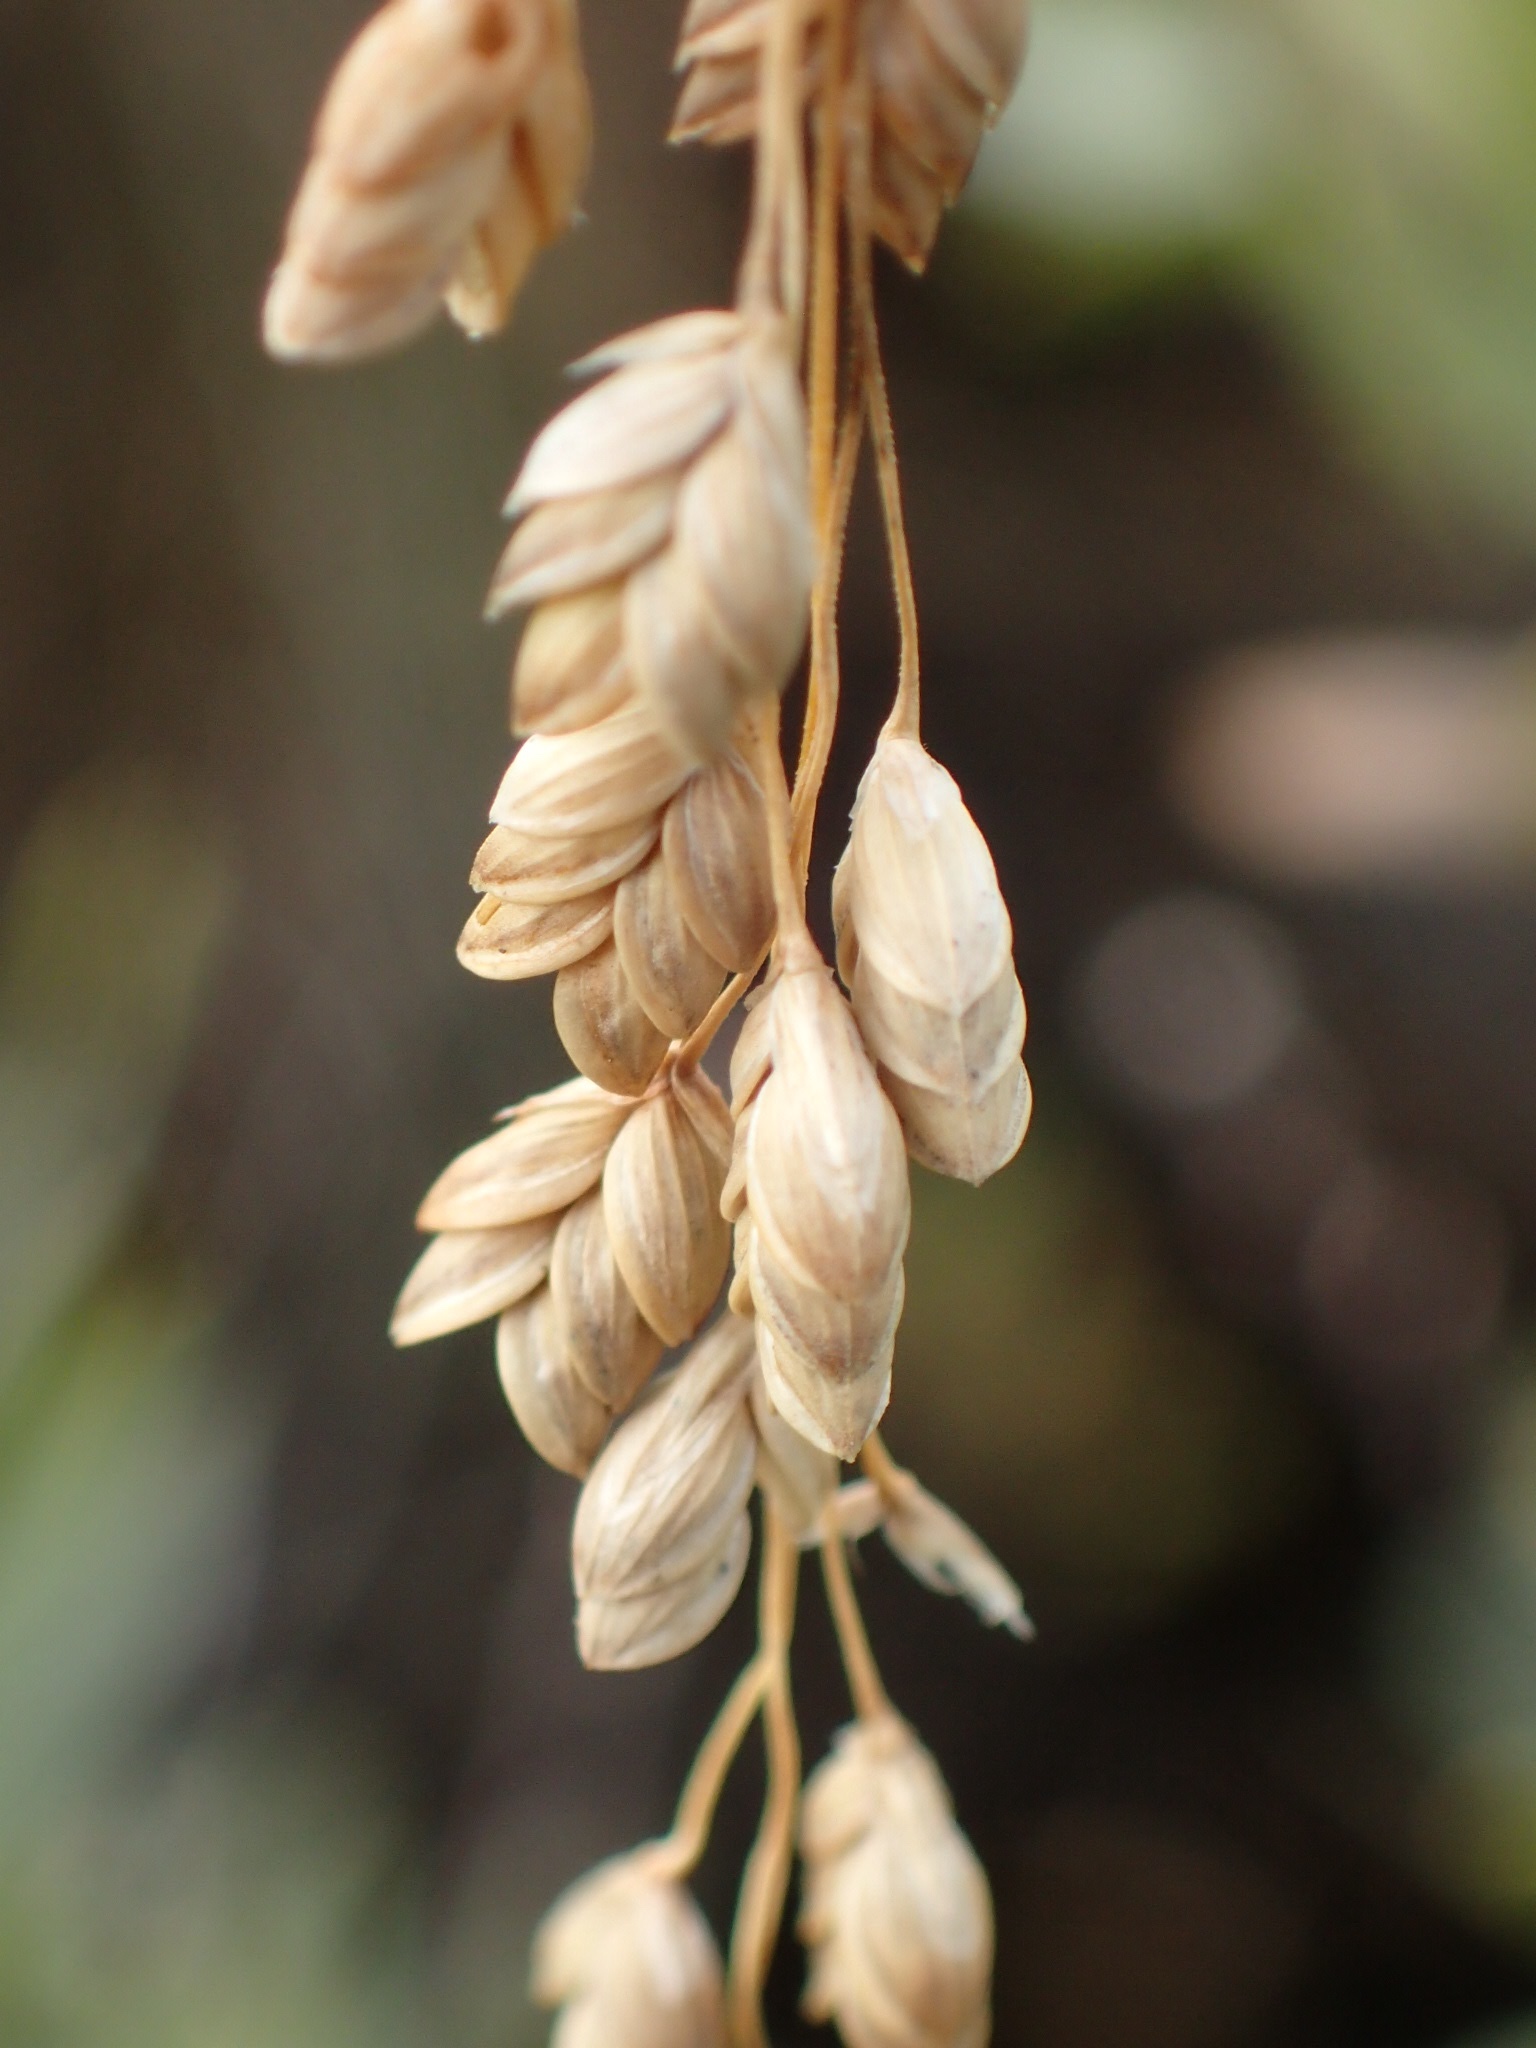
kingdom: Plantae
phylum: Tracheophyta
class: Liliopsida
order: Poales
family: Poaceae
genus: Glyceria
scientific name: Glyceria canadensis
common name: Canada mannagrass
